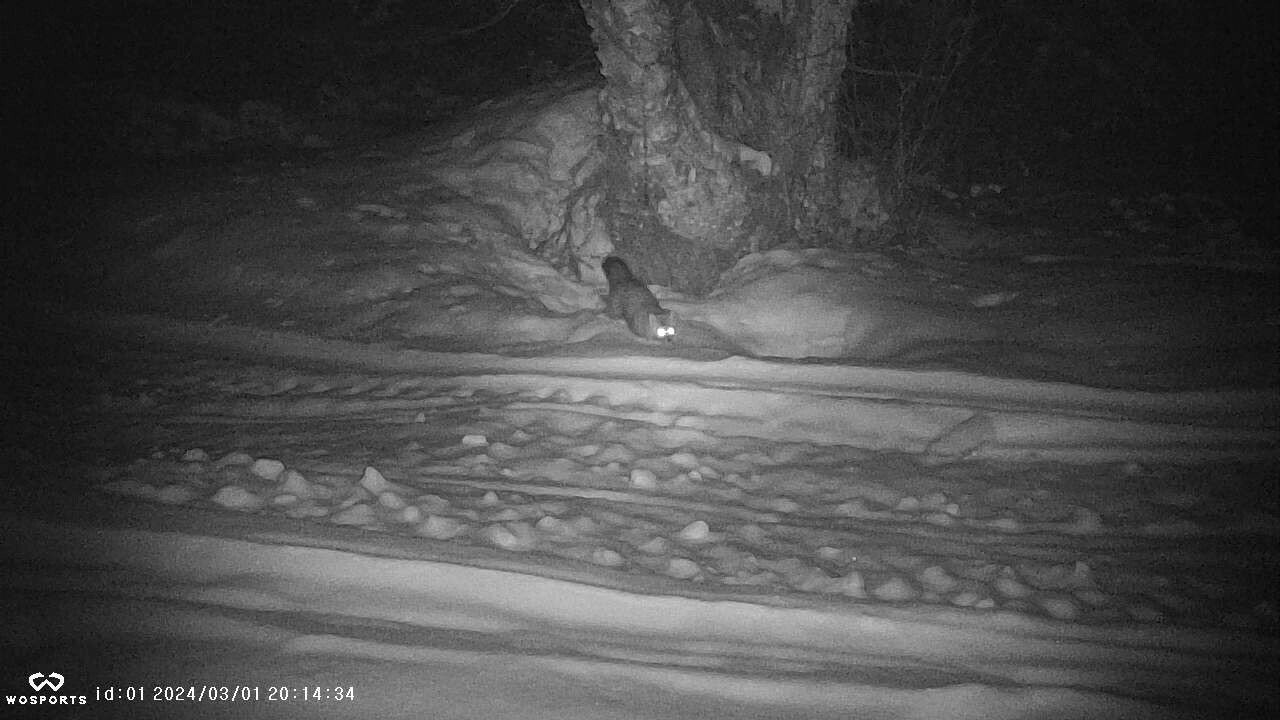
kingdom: Animalia
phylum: Chordata
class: Mammalia
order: Carnivora
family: Mustelidae
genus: Martes
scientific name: Martes americana
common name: American marten
